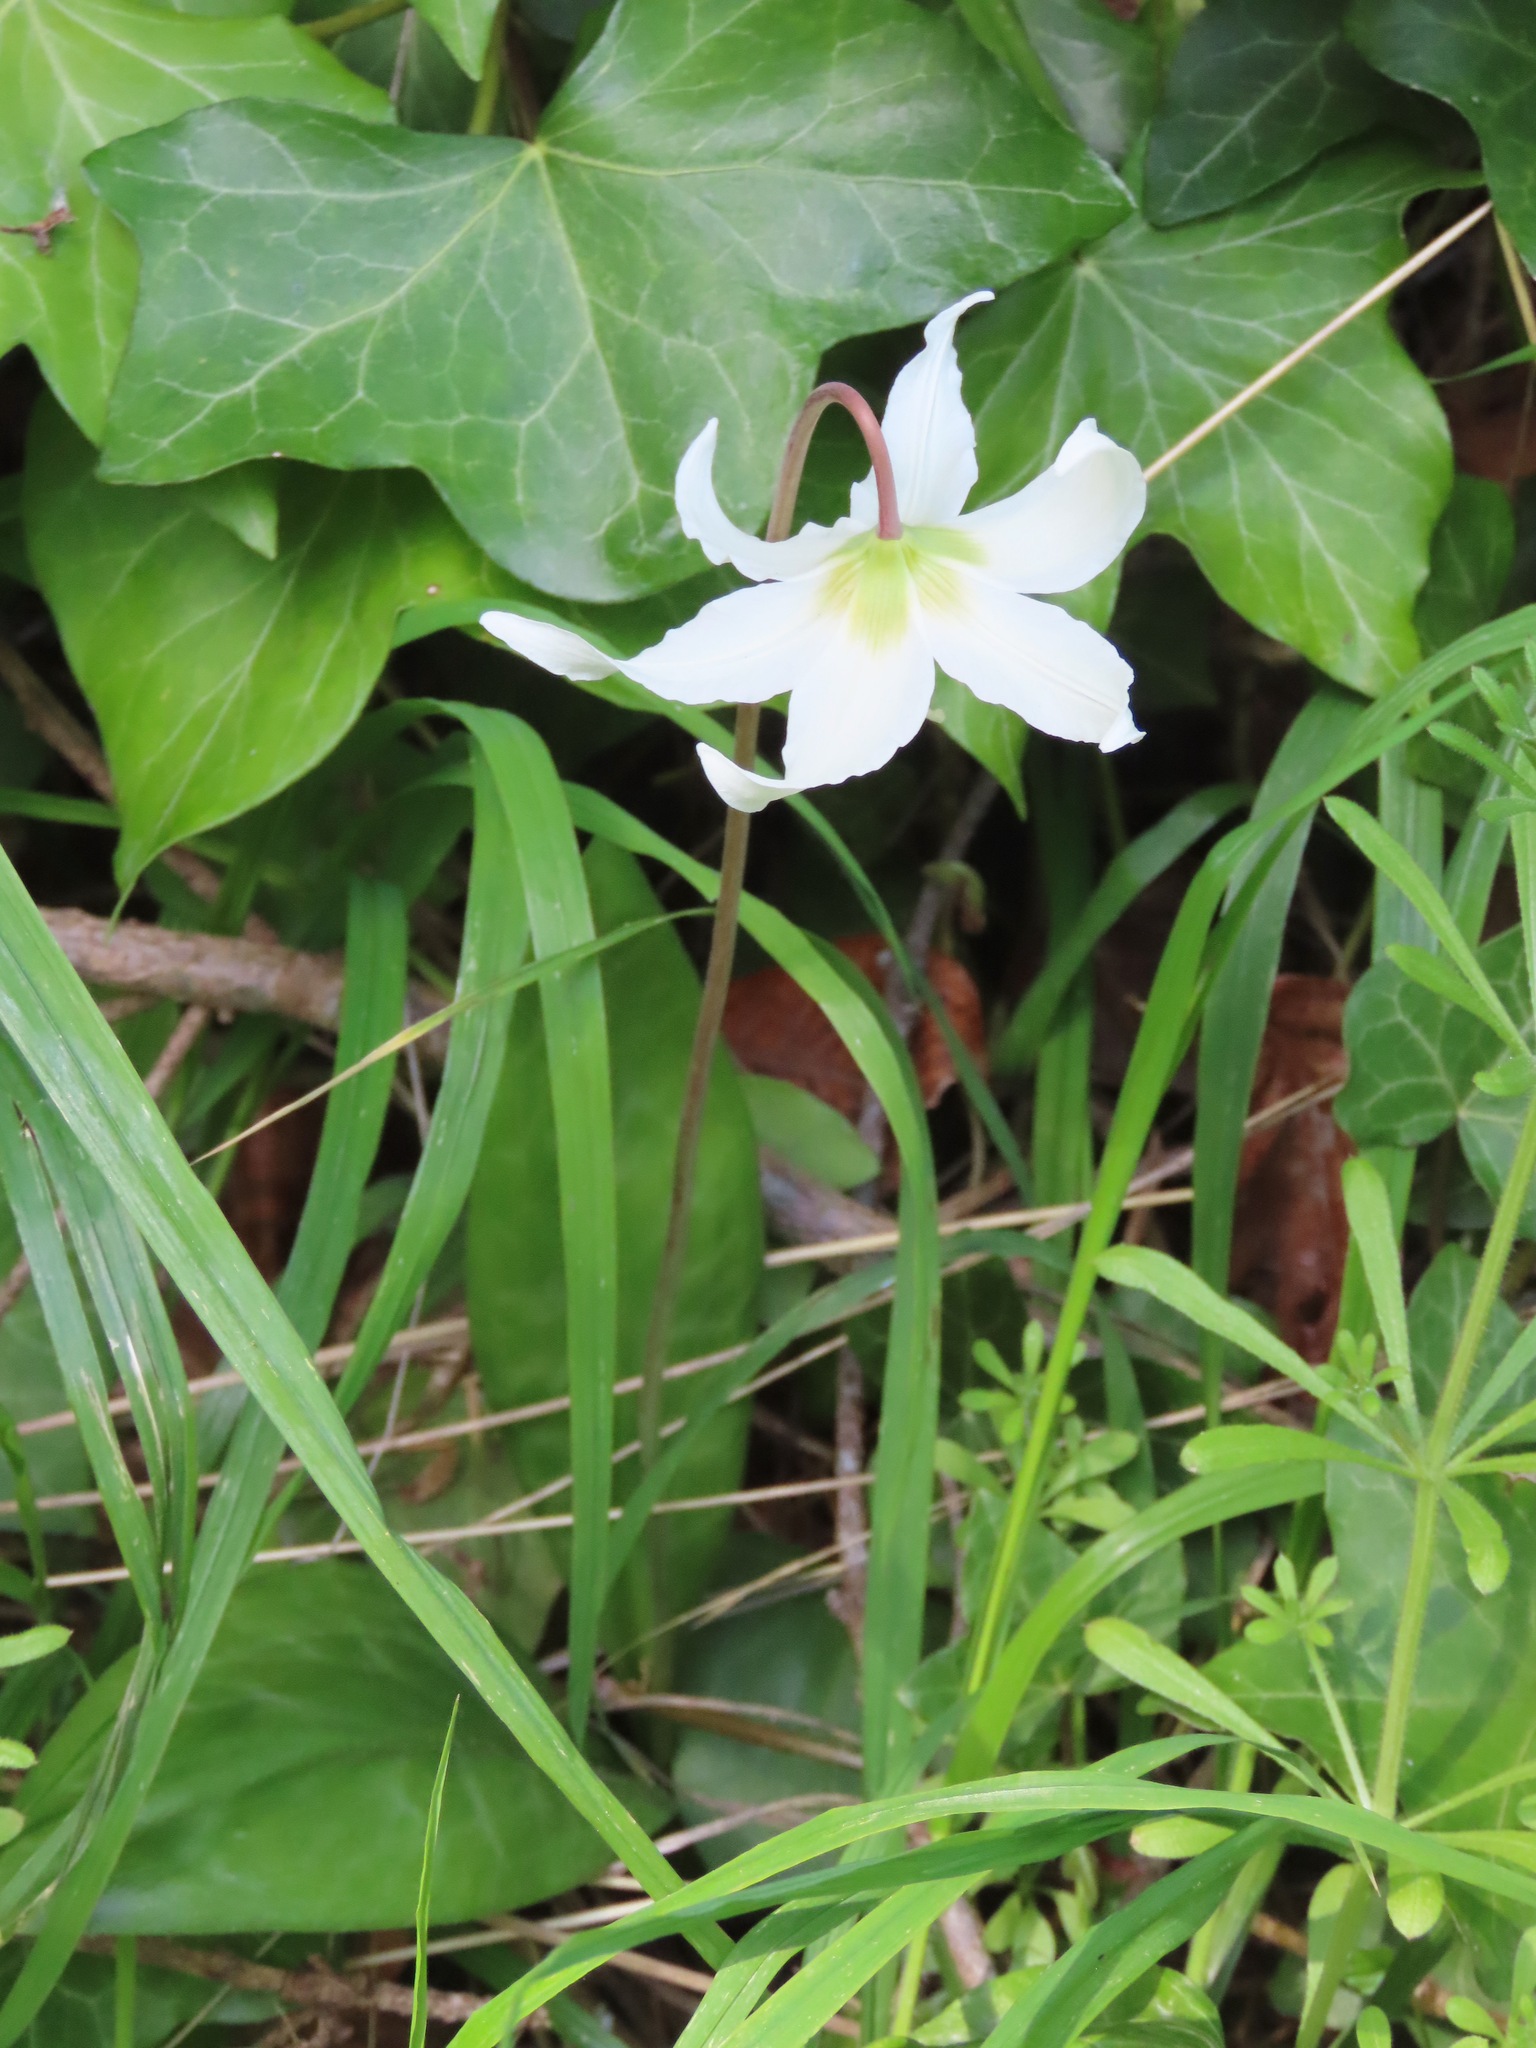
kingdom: Plantae
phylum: Tracheophyta
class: Liliopsida
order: Liliales
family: Liliaceae
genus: Erythronium
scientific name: Erythronium oregonum
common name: Giant adder's-tongue
